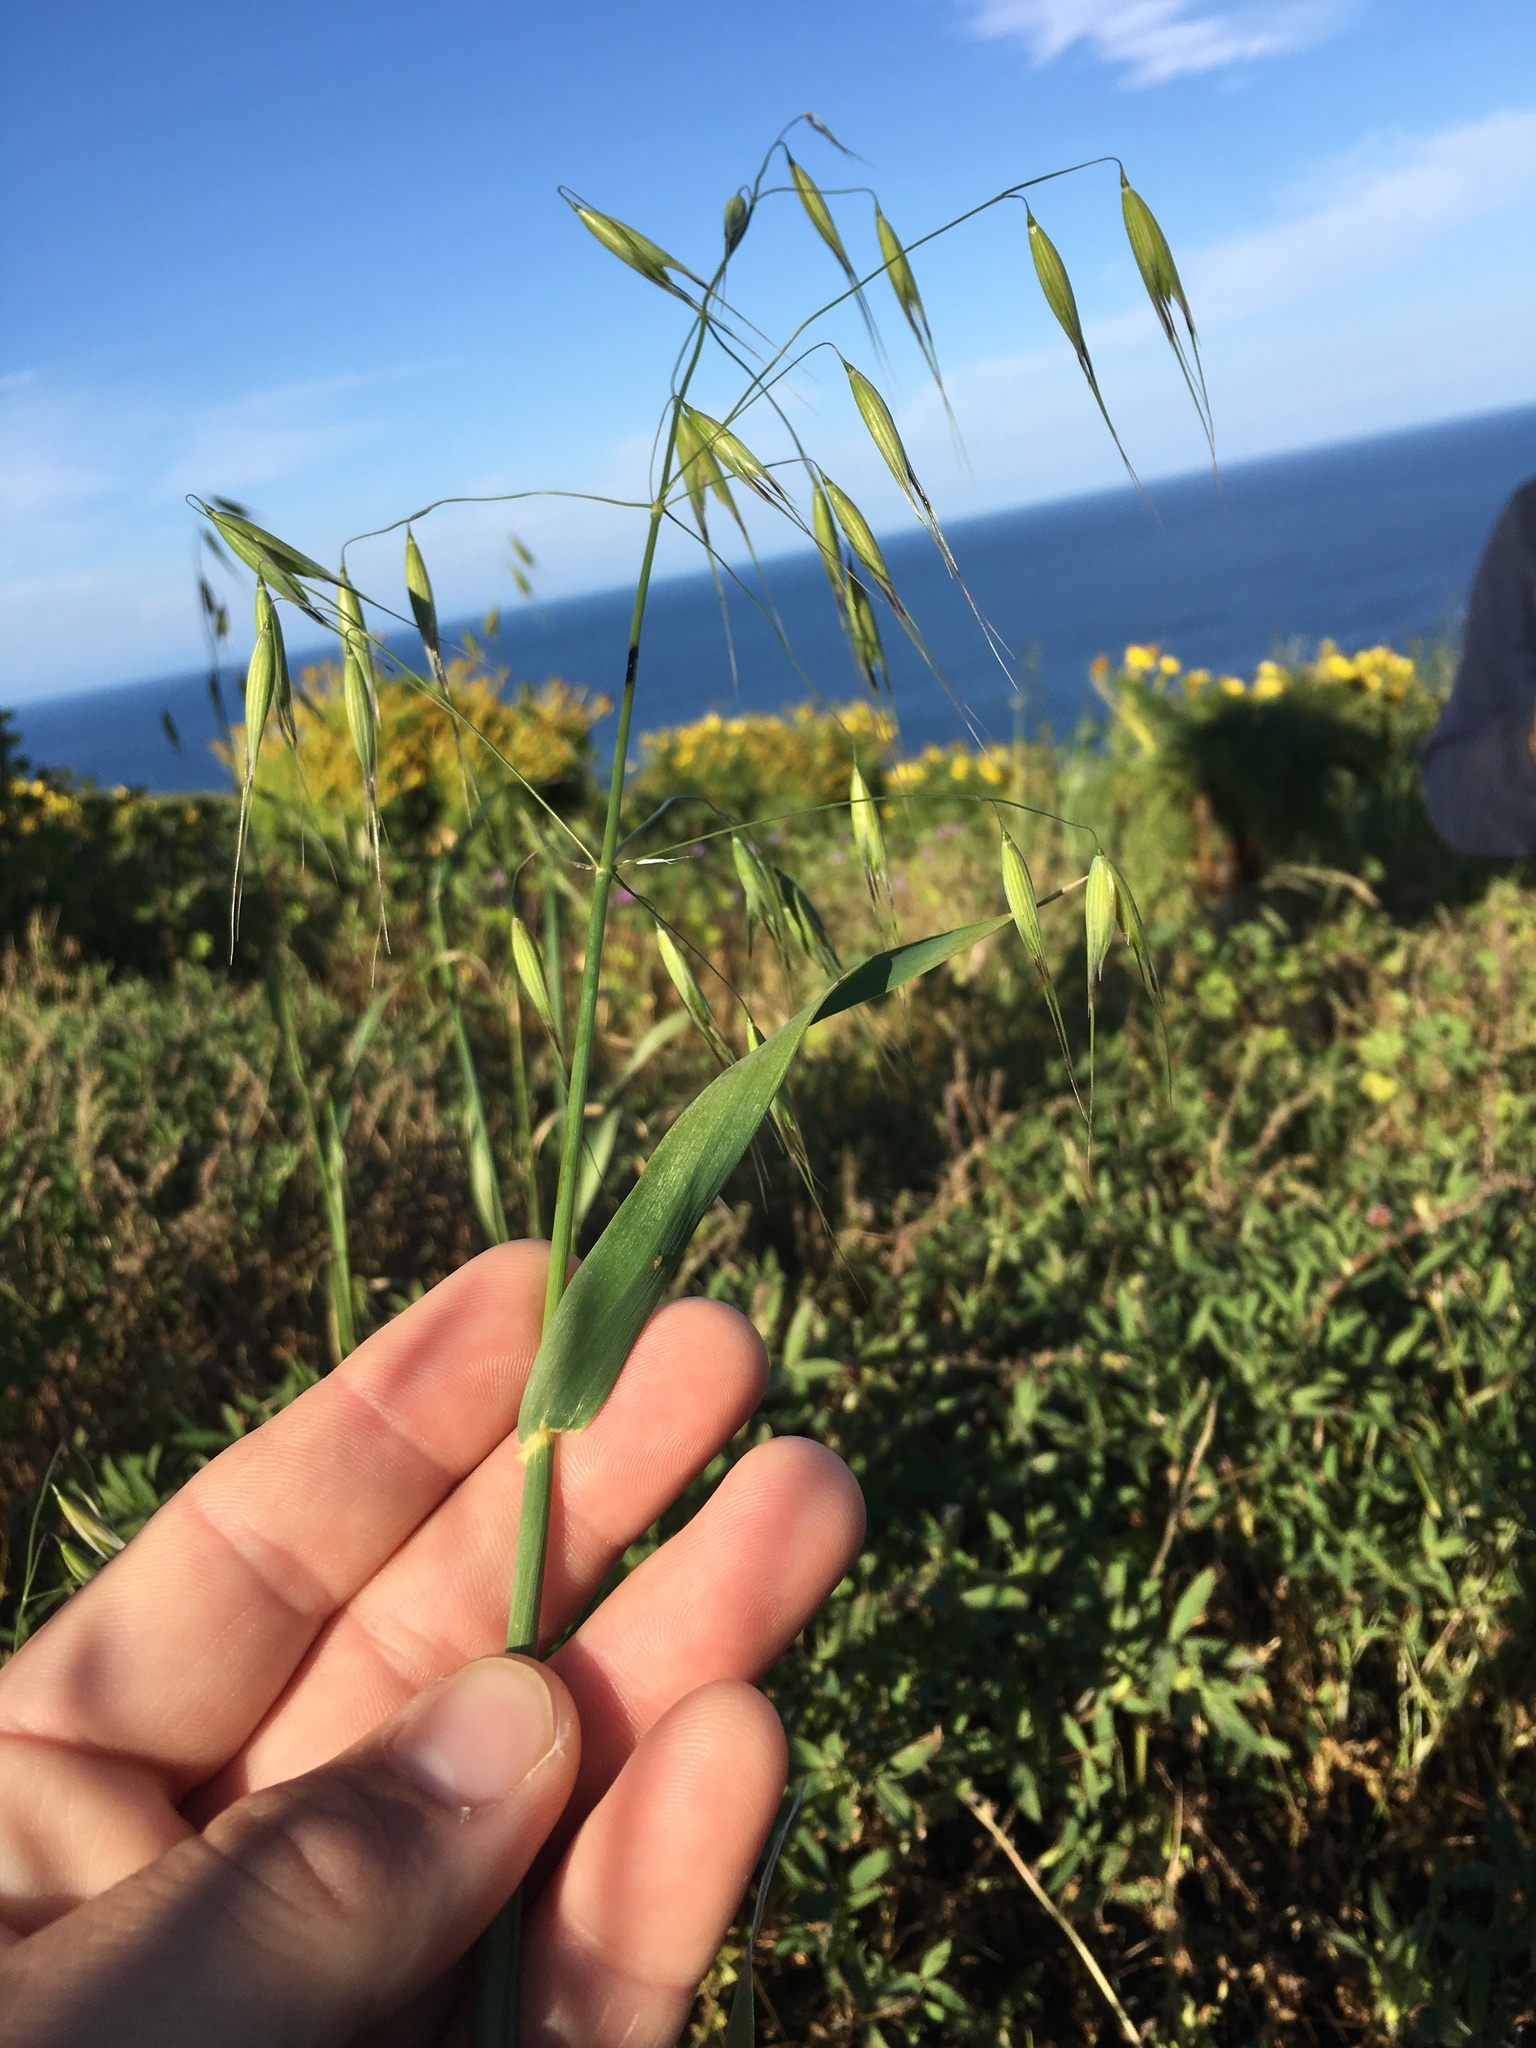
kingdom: Plantae
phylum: Tracheophyta
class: Liliopsida
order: Poales
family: Poaceae
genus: Avena
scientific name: Avena fatua
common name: Wild oat
